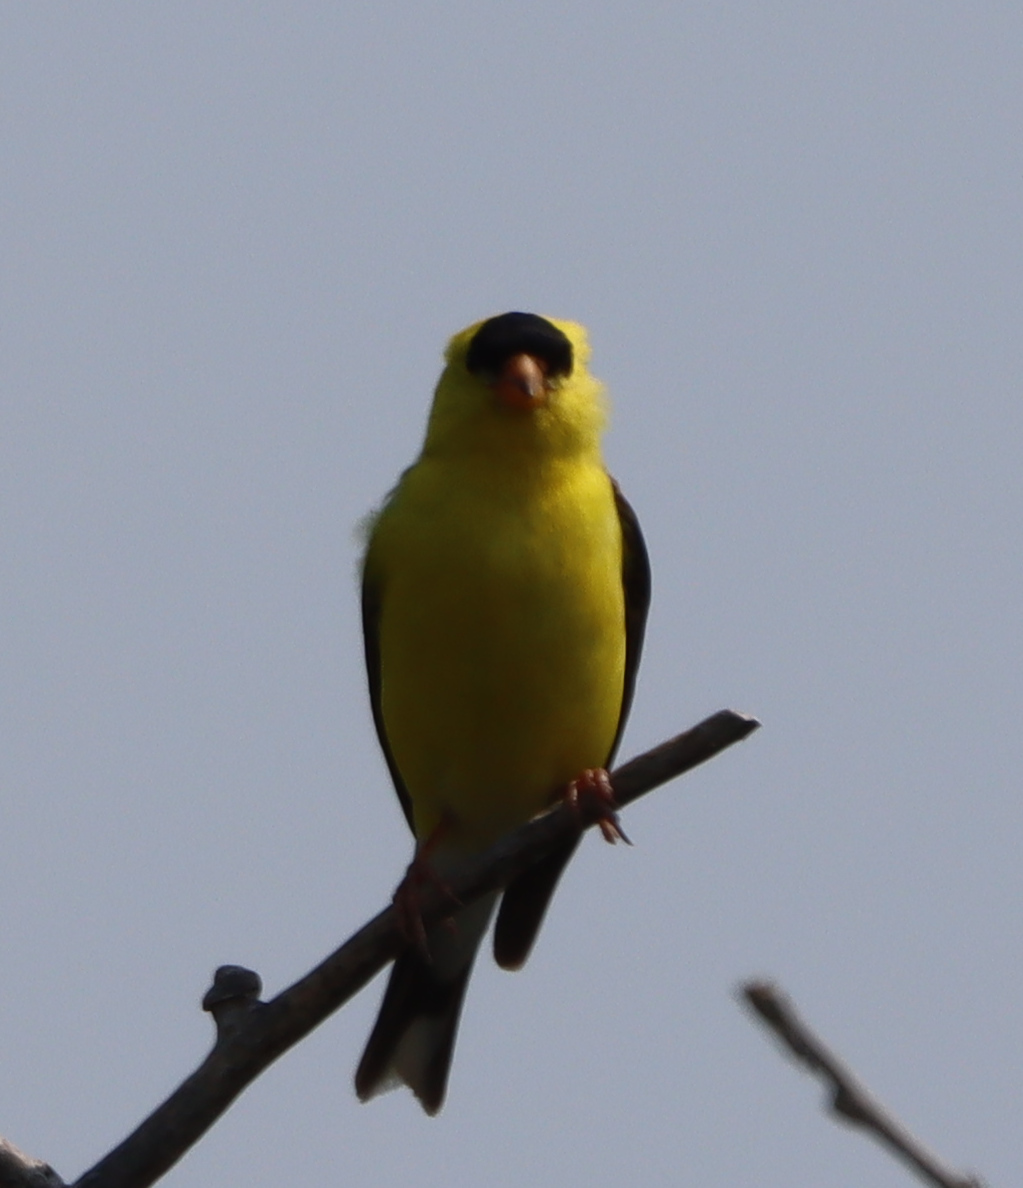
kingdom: Animalia
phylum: Chordata
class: Aves
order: Passeriformes
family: Fringillidae
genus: Spinus
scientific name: Spinus tristis
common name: American goldfinch
